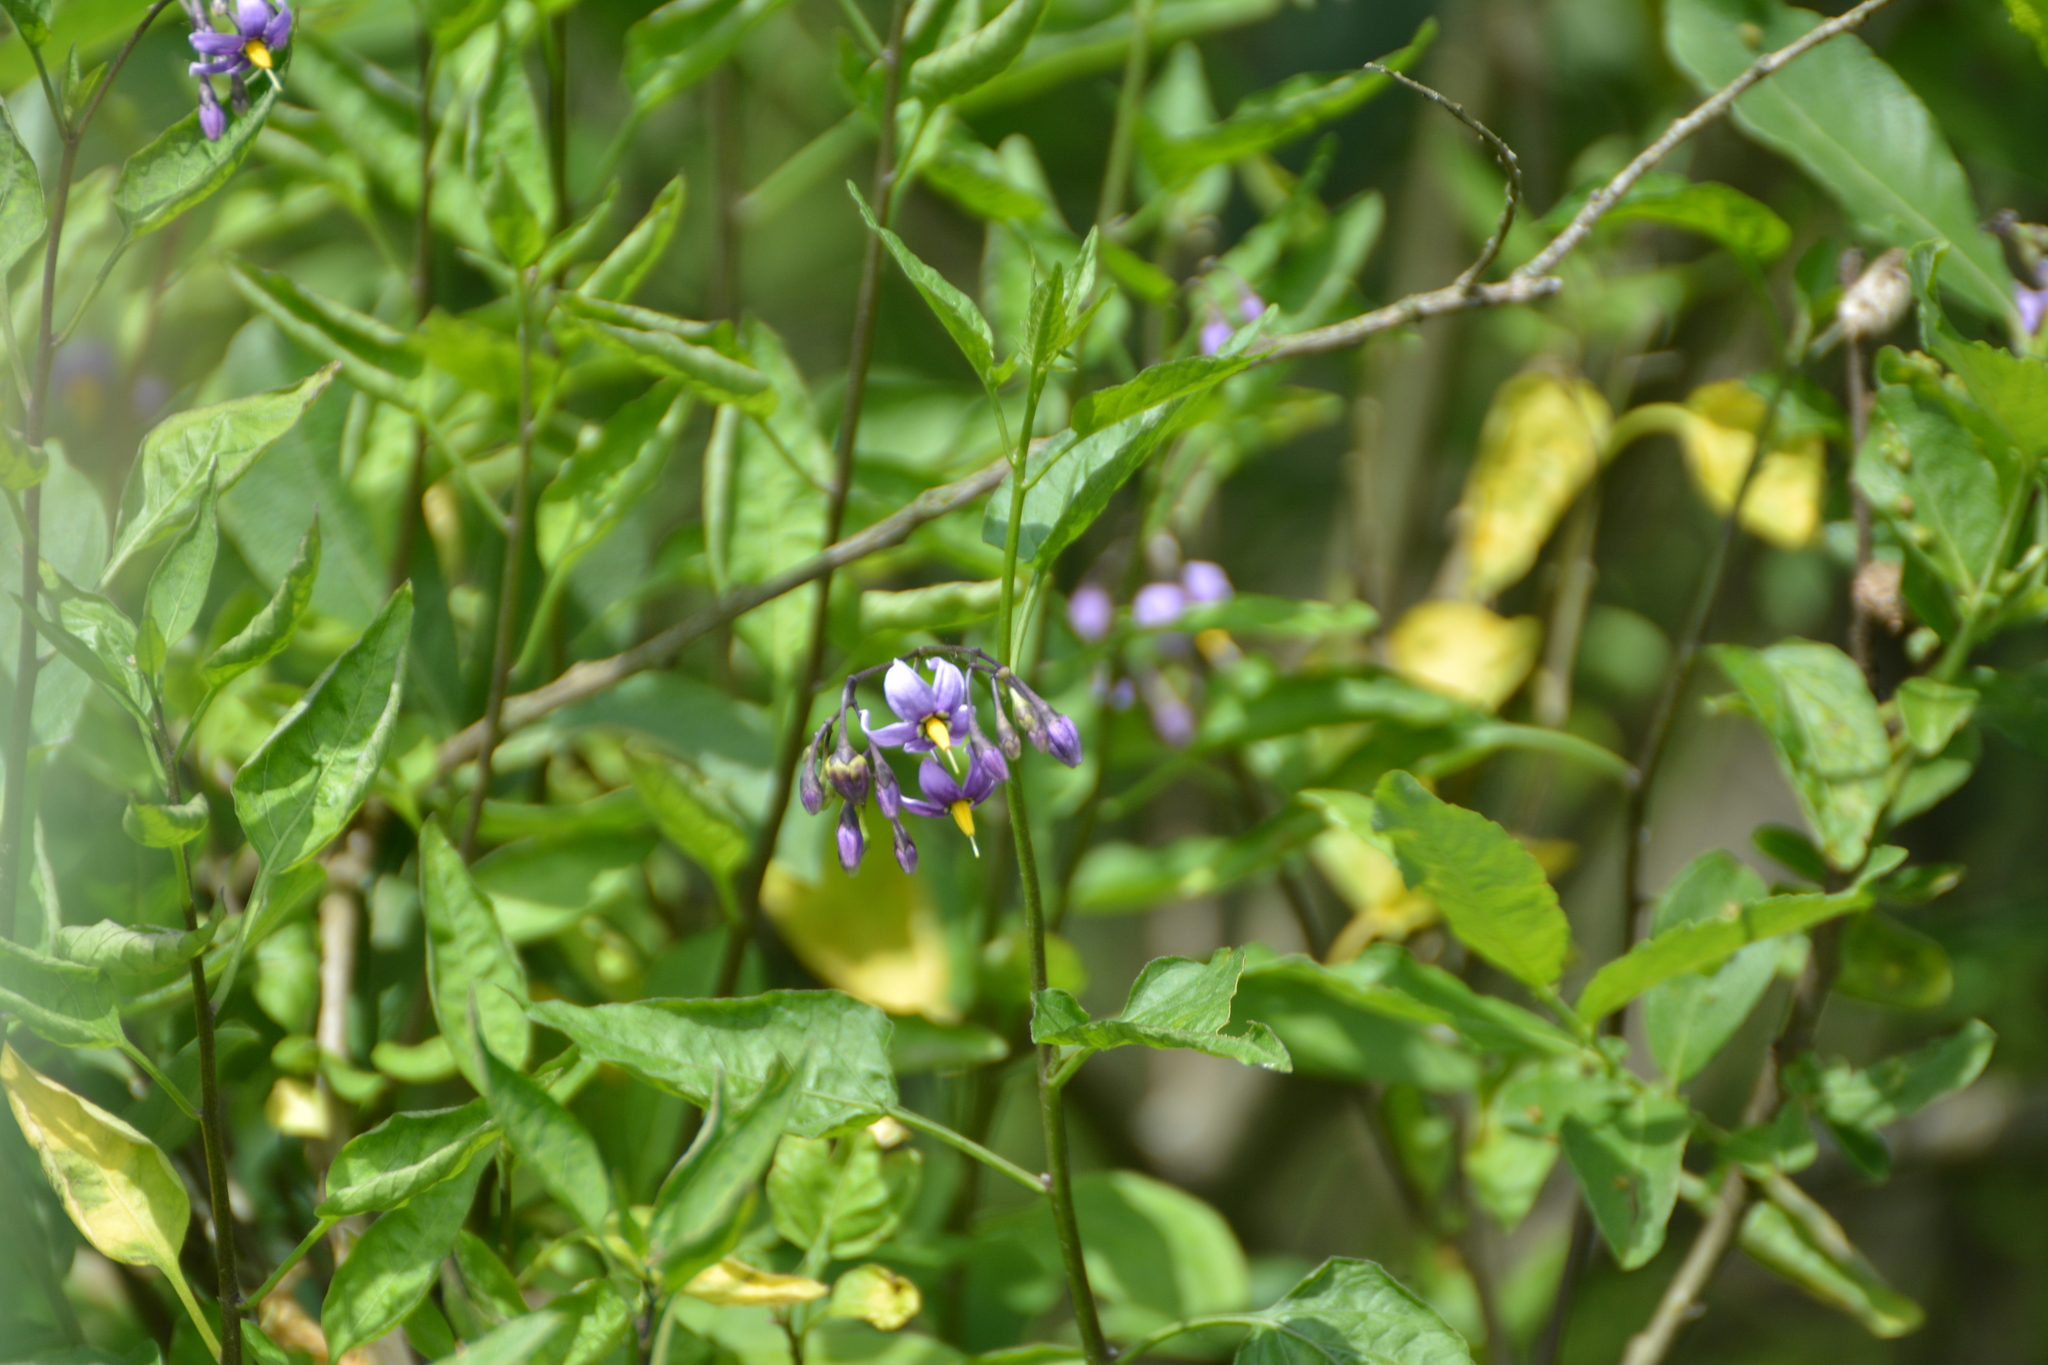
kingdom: Plantae
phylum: Tracheophyta
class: Magnoliopsida
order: Solanales
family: Solanaceae
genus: Solanum
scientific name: Solanum dulcamara
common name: Climbing nightshade
